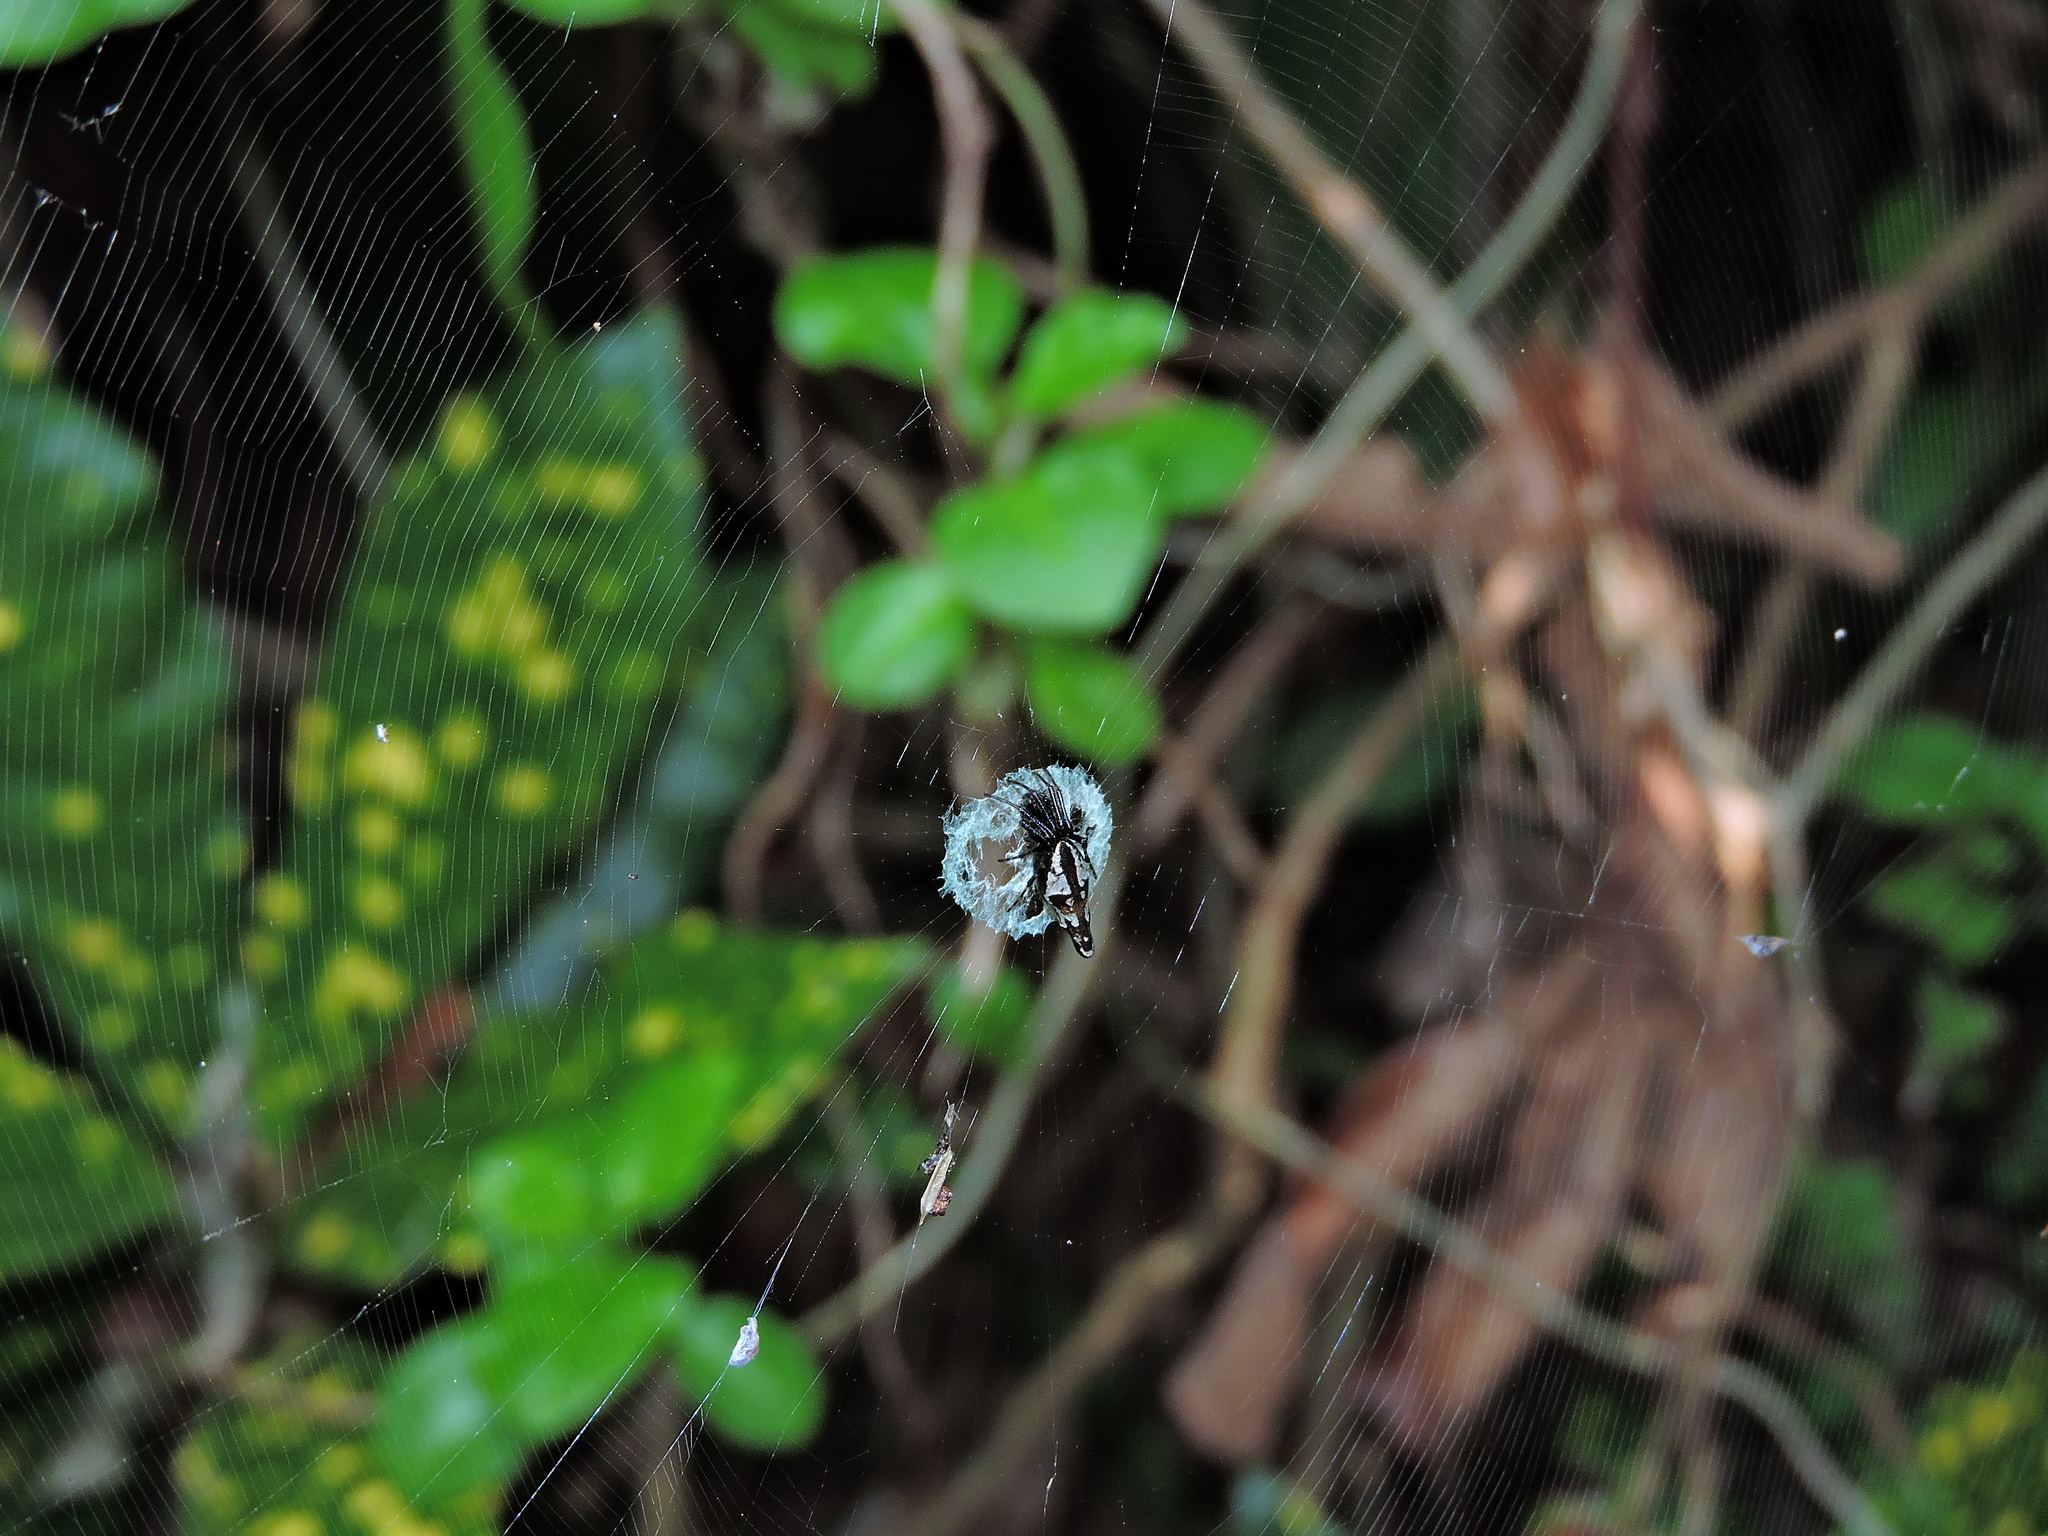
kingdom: Animalia
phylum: Arthropoda
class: Arachnida
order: Araneae
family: Araneidae
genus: Cyclosa
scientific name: Cyclosa ginnaga
